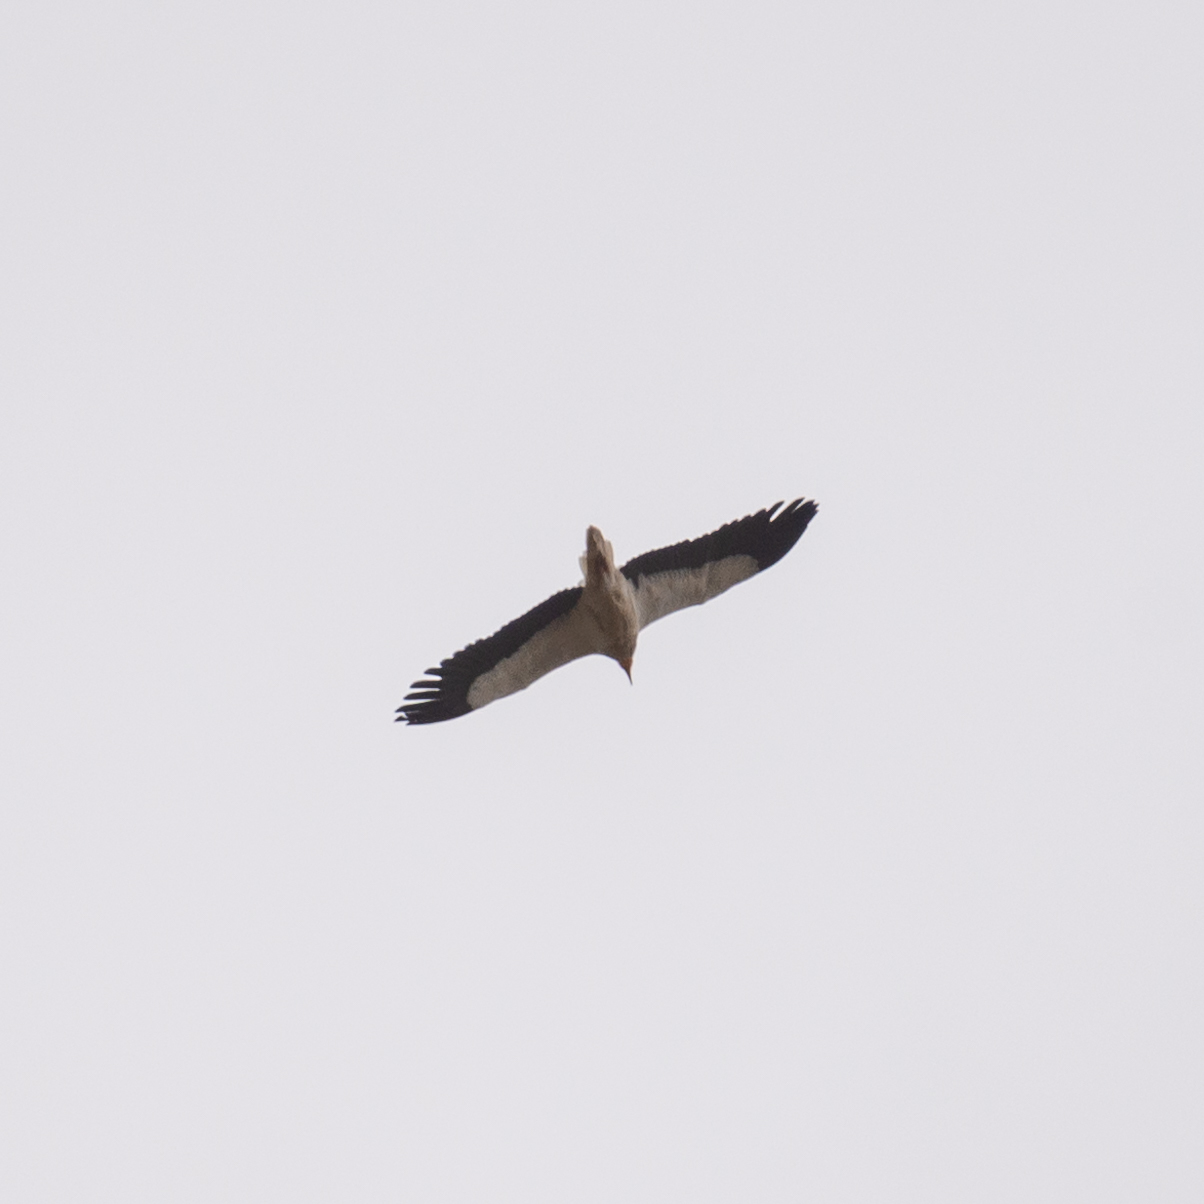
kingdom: Animalia
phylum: Chordata
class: Aves
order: Accipitriformes
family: Accipitridae
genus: Neophron
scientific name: Neophron percnopterus
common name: Egyptian vulture
